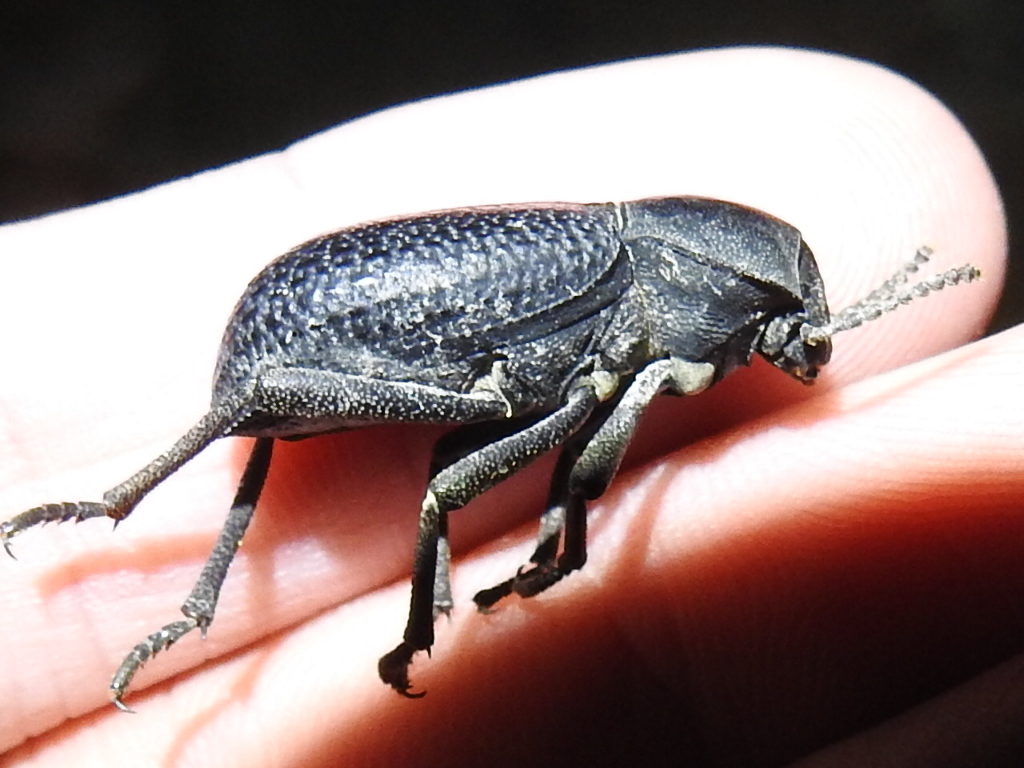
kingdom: Animalia
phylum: Arthropoda
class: Insecta
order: Coleoptera
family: Tenebrionidae
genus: Cryptoglossa
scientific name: Cryptoglossa infausta
